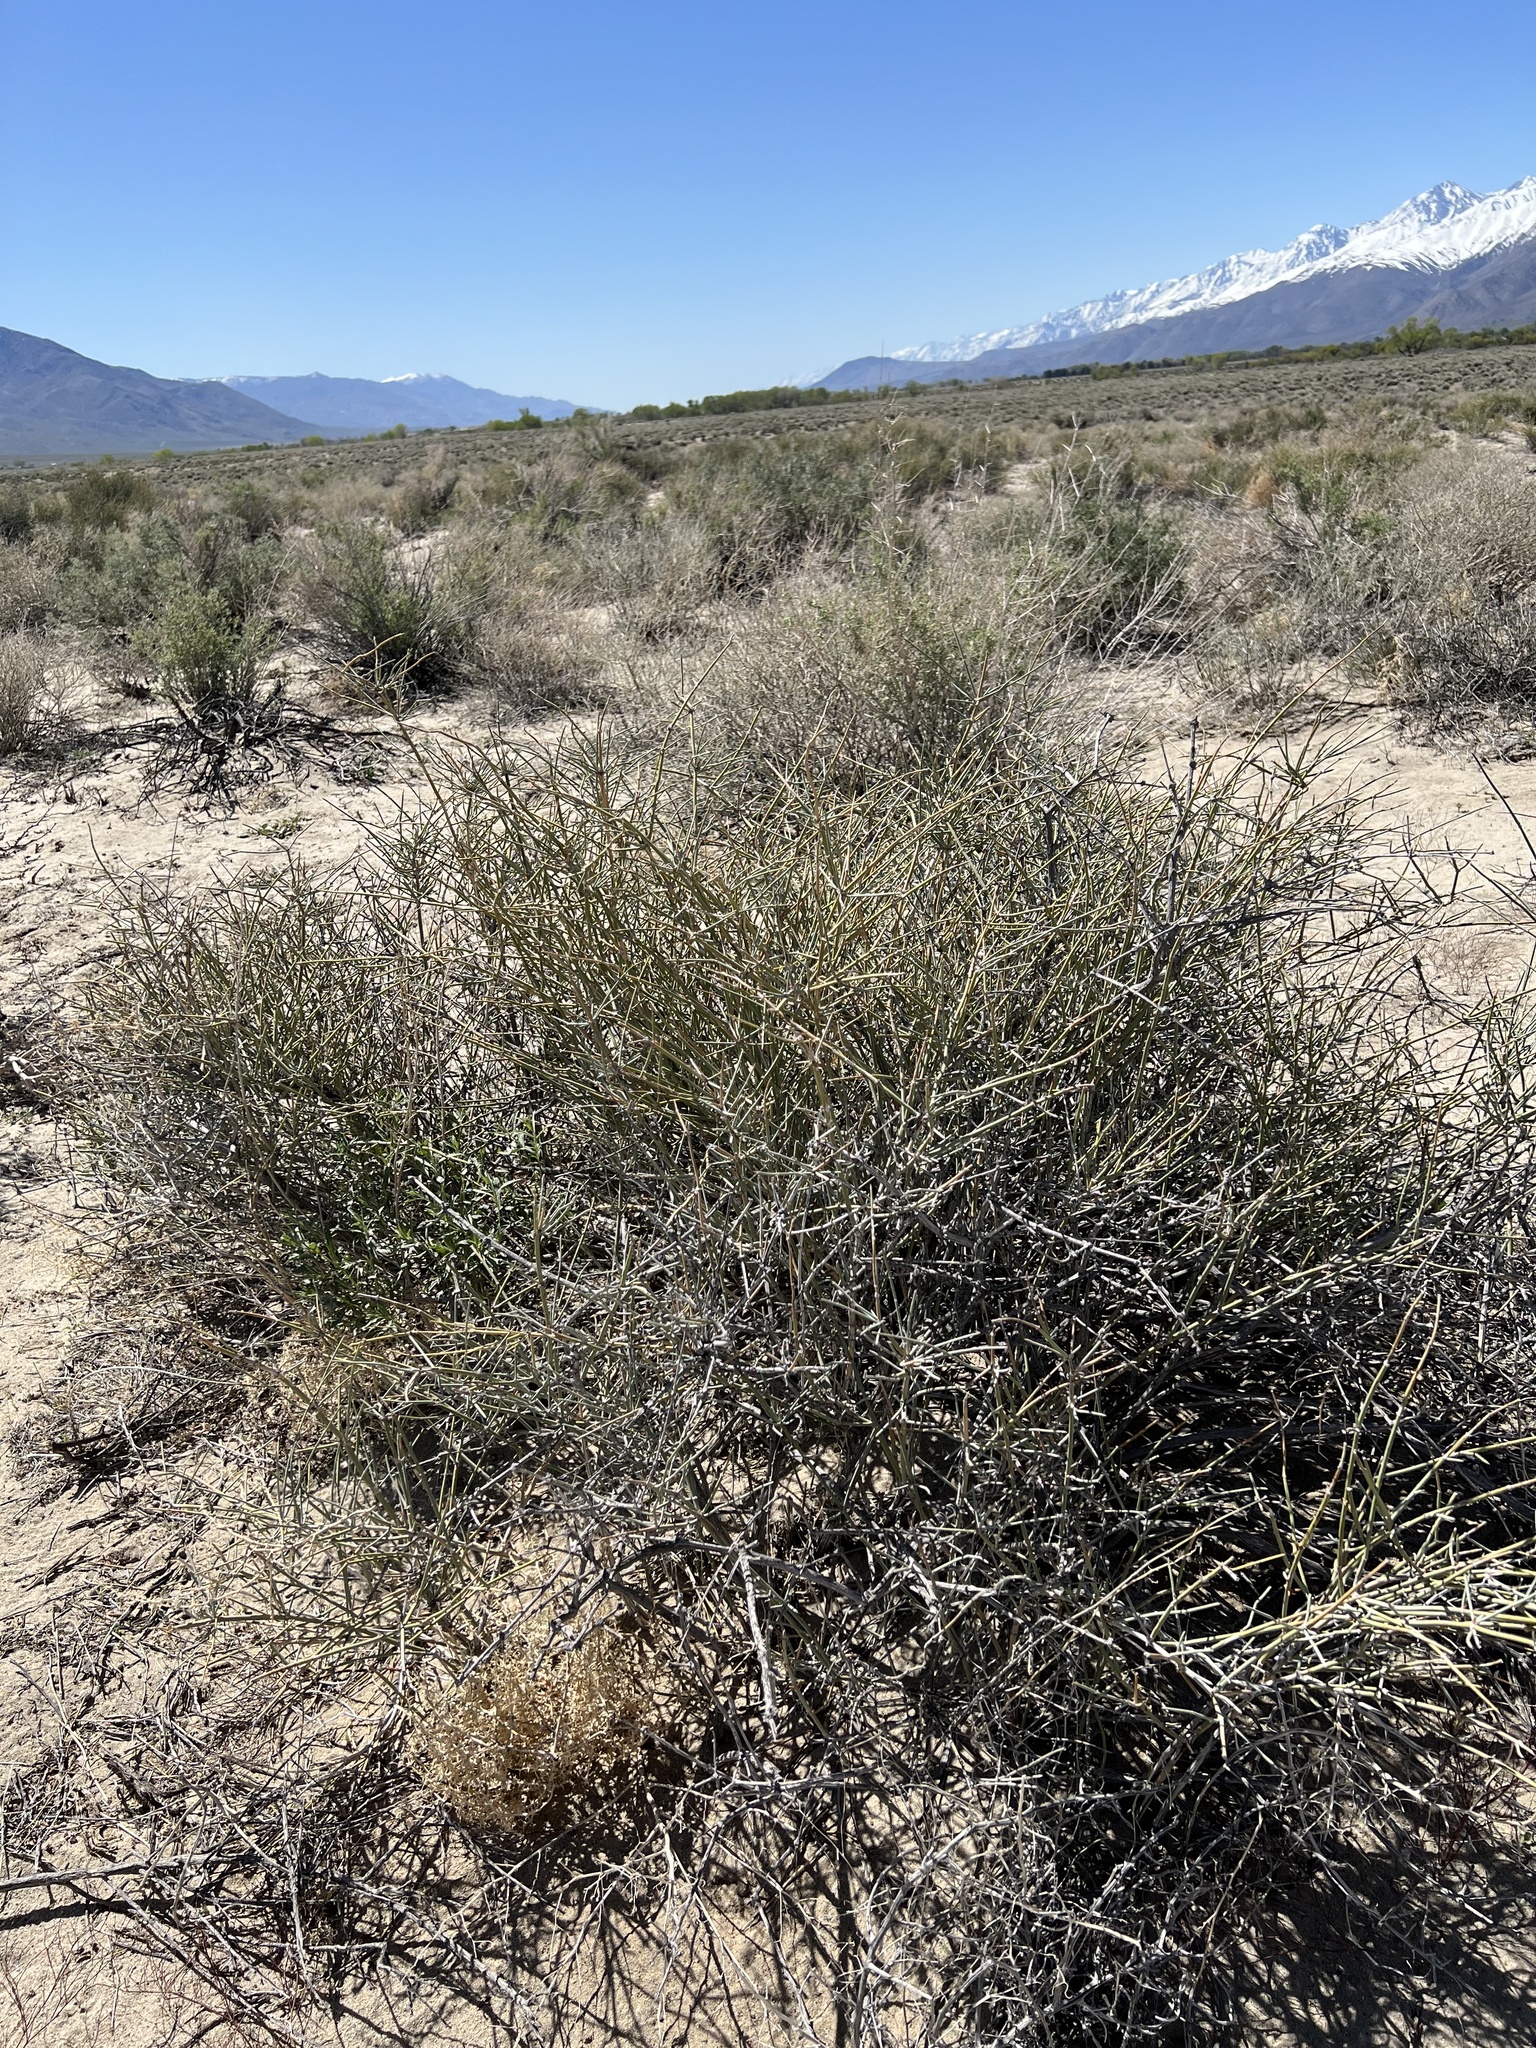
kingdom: Plantae
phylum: Tracheophyta
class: Gnetopsida
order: Ephedrales
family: Ephedraceae
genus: Ephedra
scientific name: Ephedra nevadensis
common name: Gray ephedra
